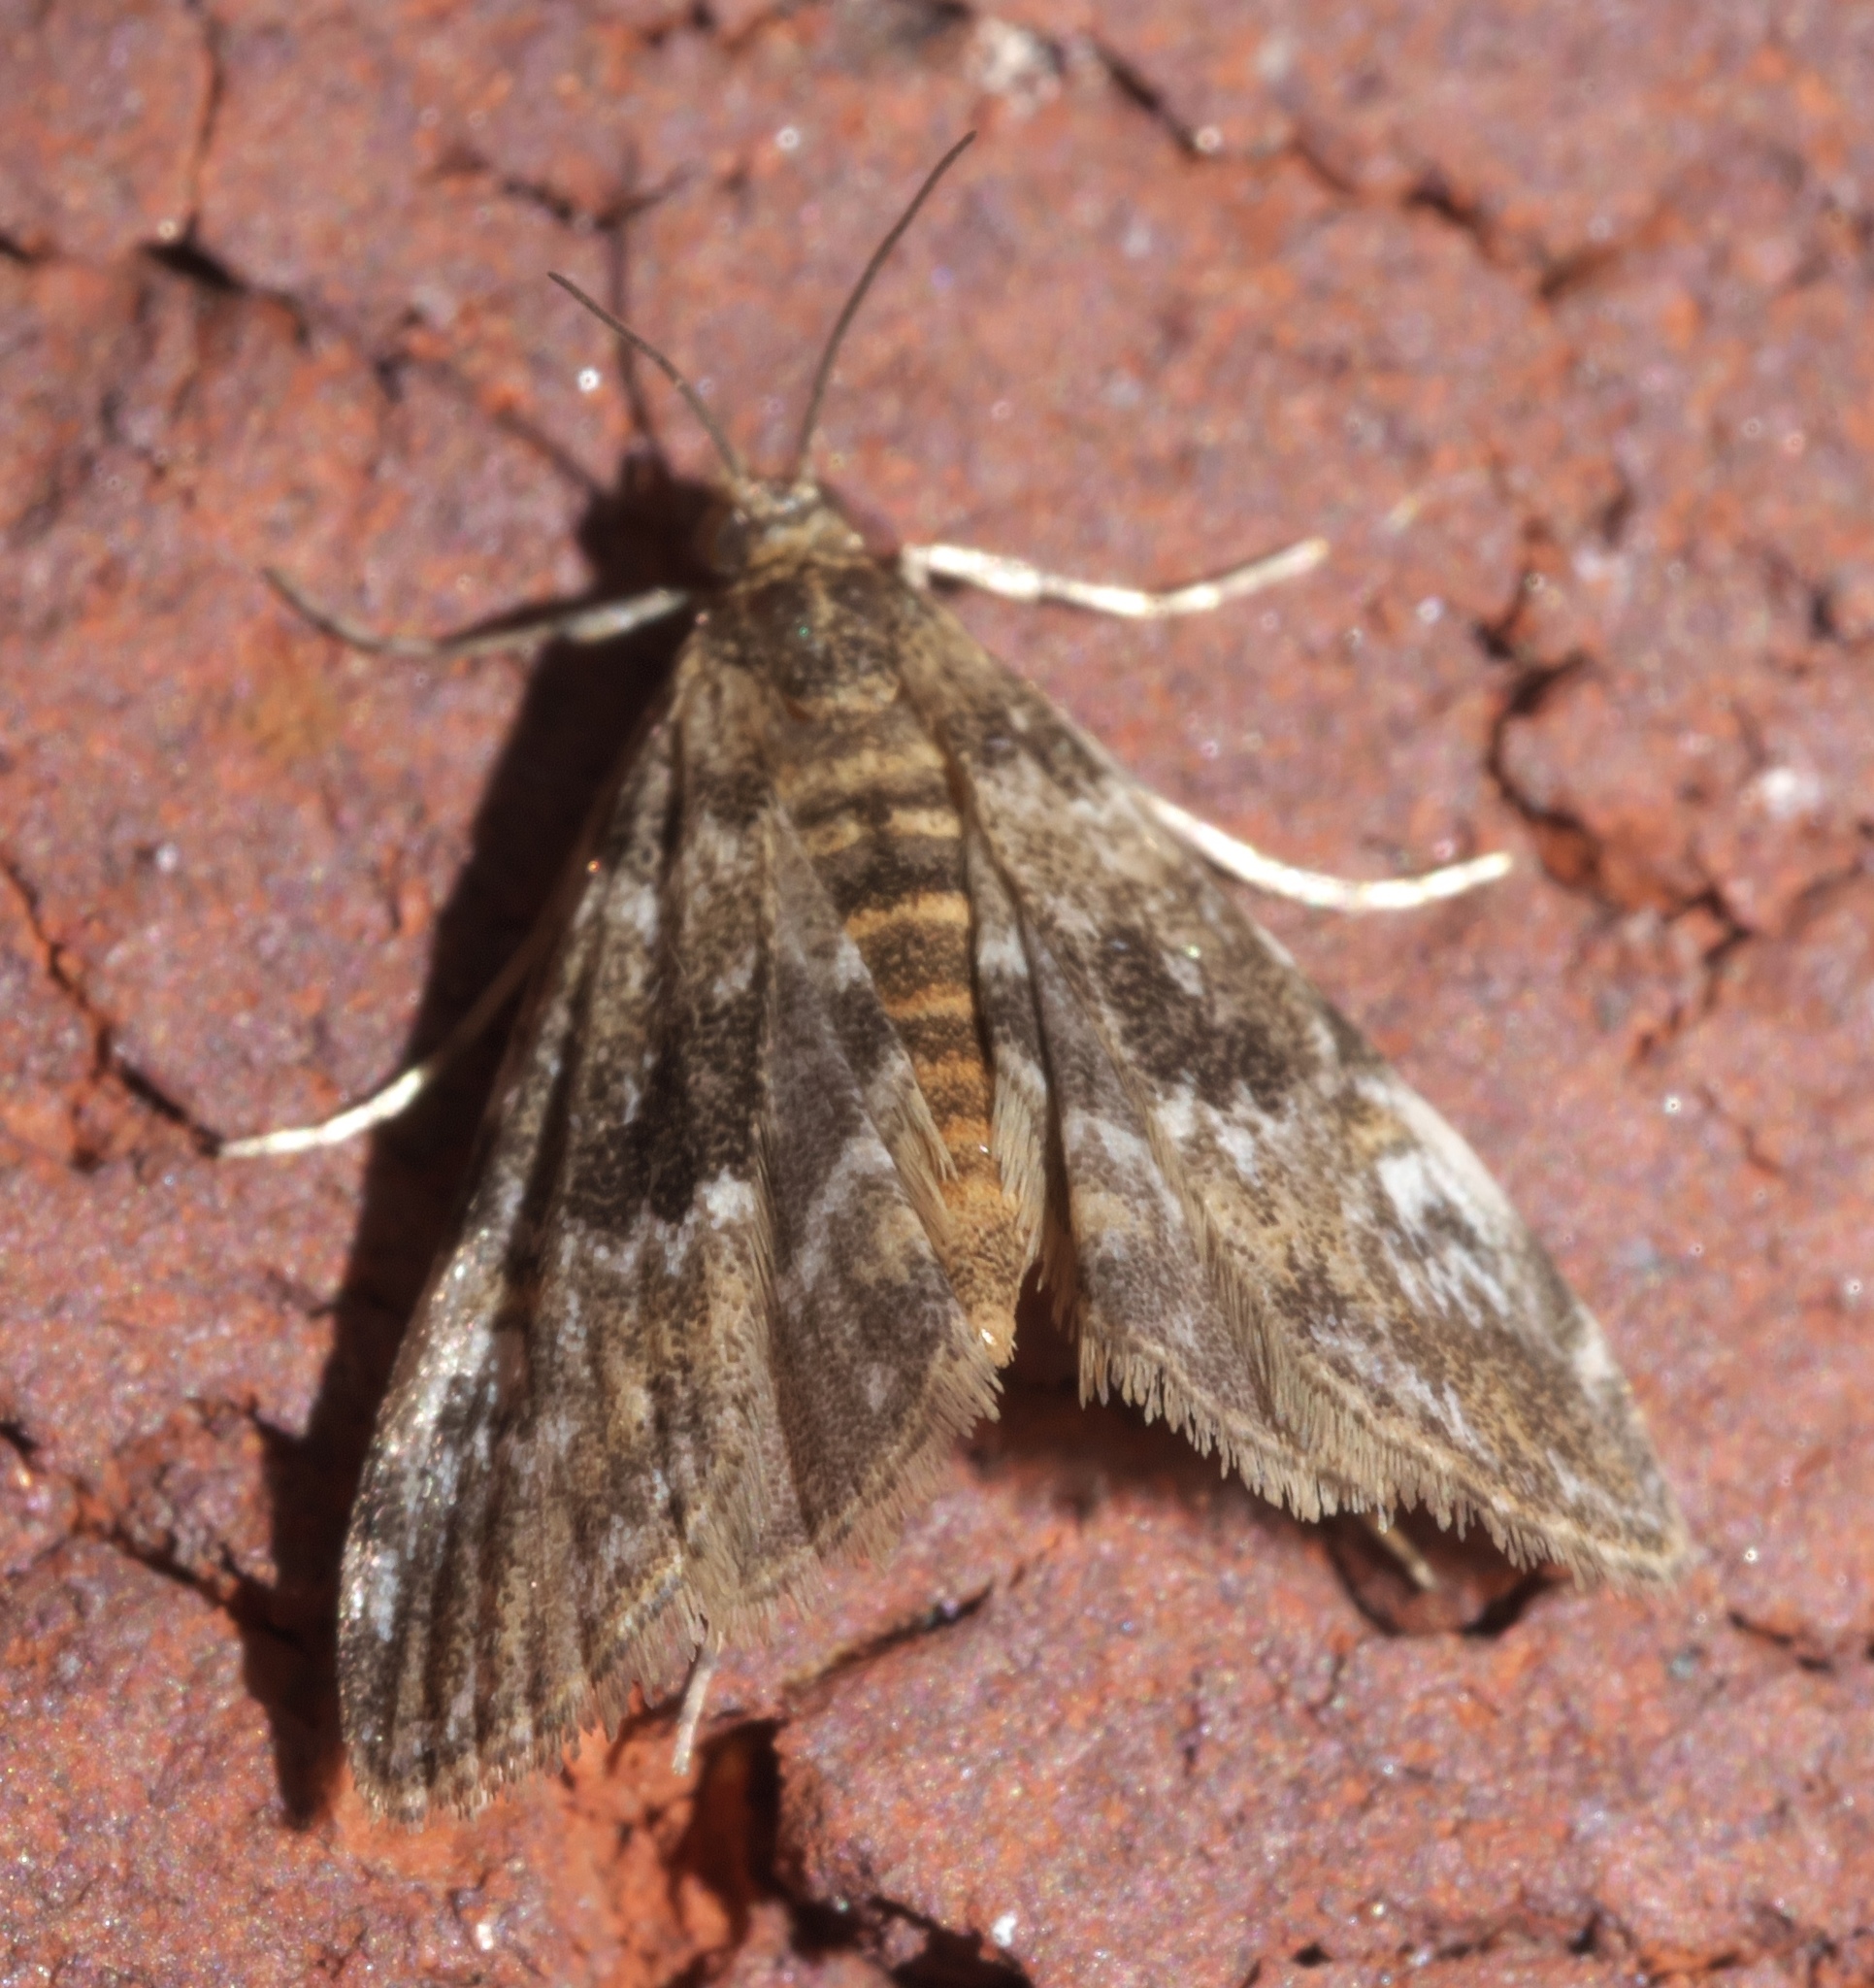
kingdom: Animalia
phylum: Arthropoda
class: Insecta
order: Lepidoptera
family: Crambidae
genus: Elophila
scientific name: Elophila obliteralis
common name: Waterlily leafcutter moth
